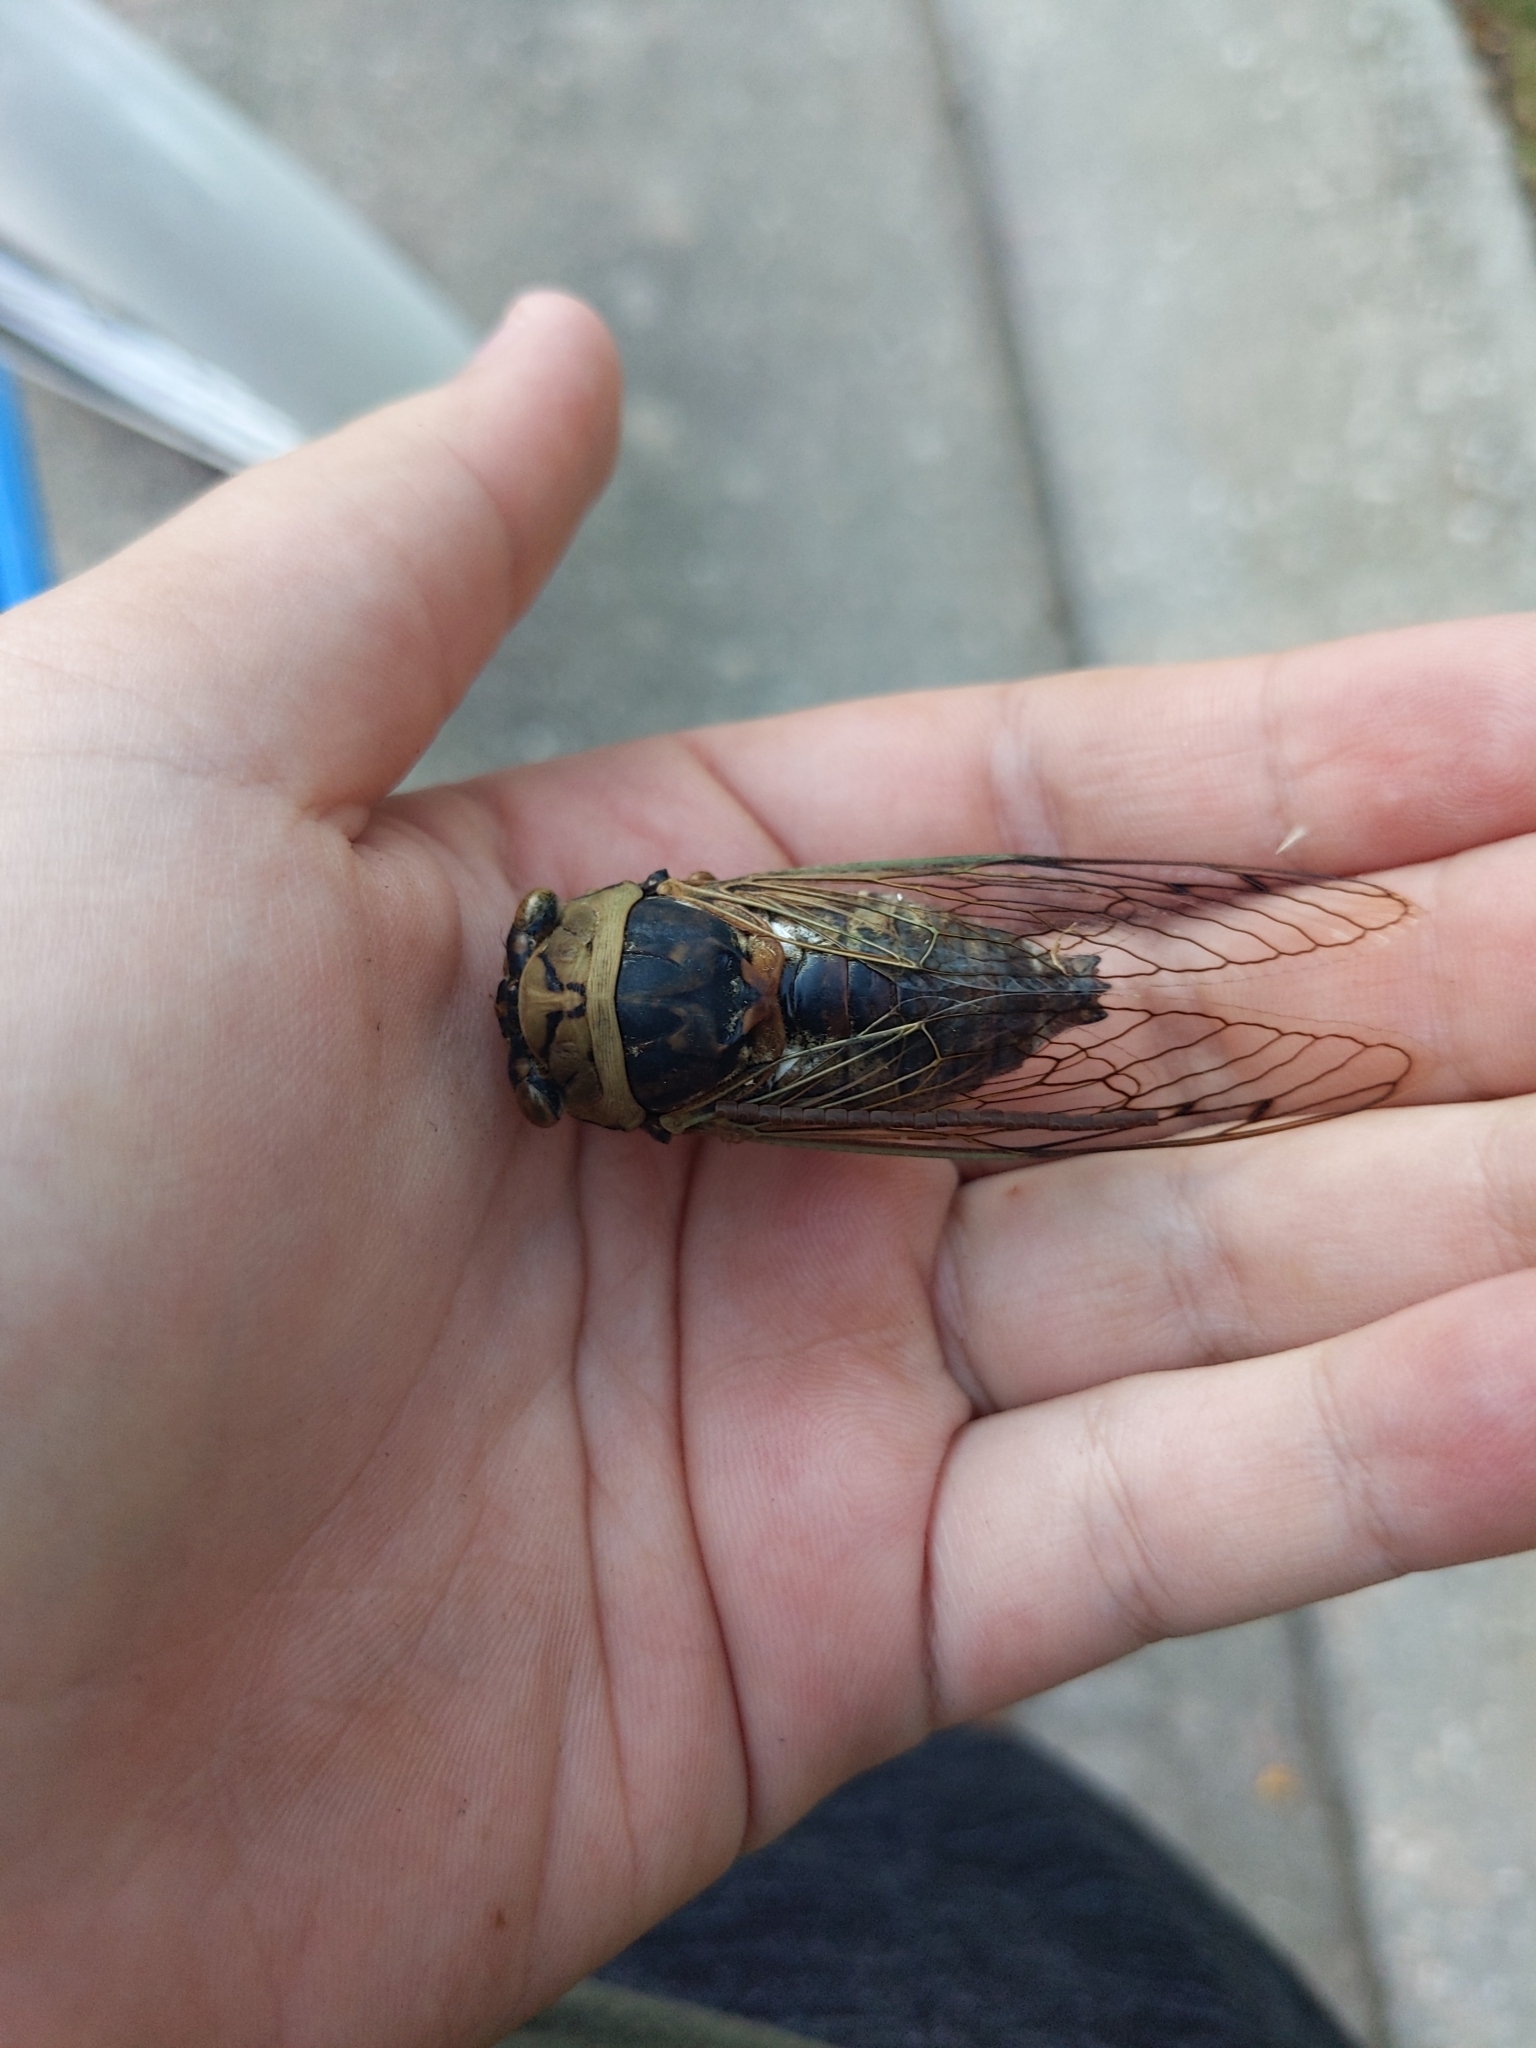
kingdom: Animalia
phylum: Arthropoda
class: Insecta
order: Hemiptera
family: Cicadidae
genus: Megatibicen
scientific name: Megatibicen resh
